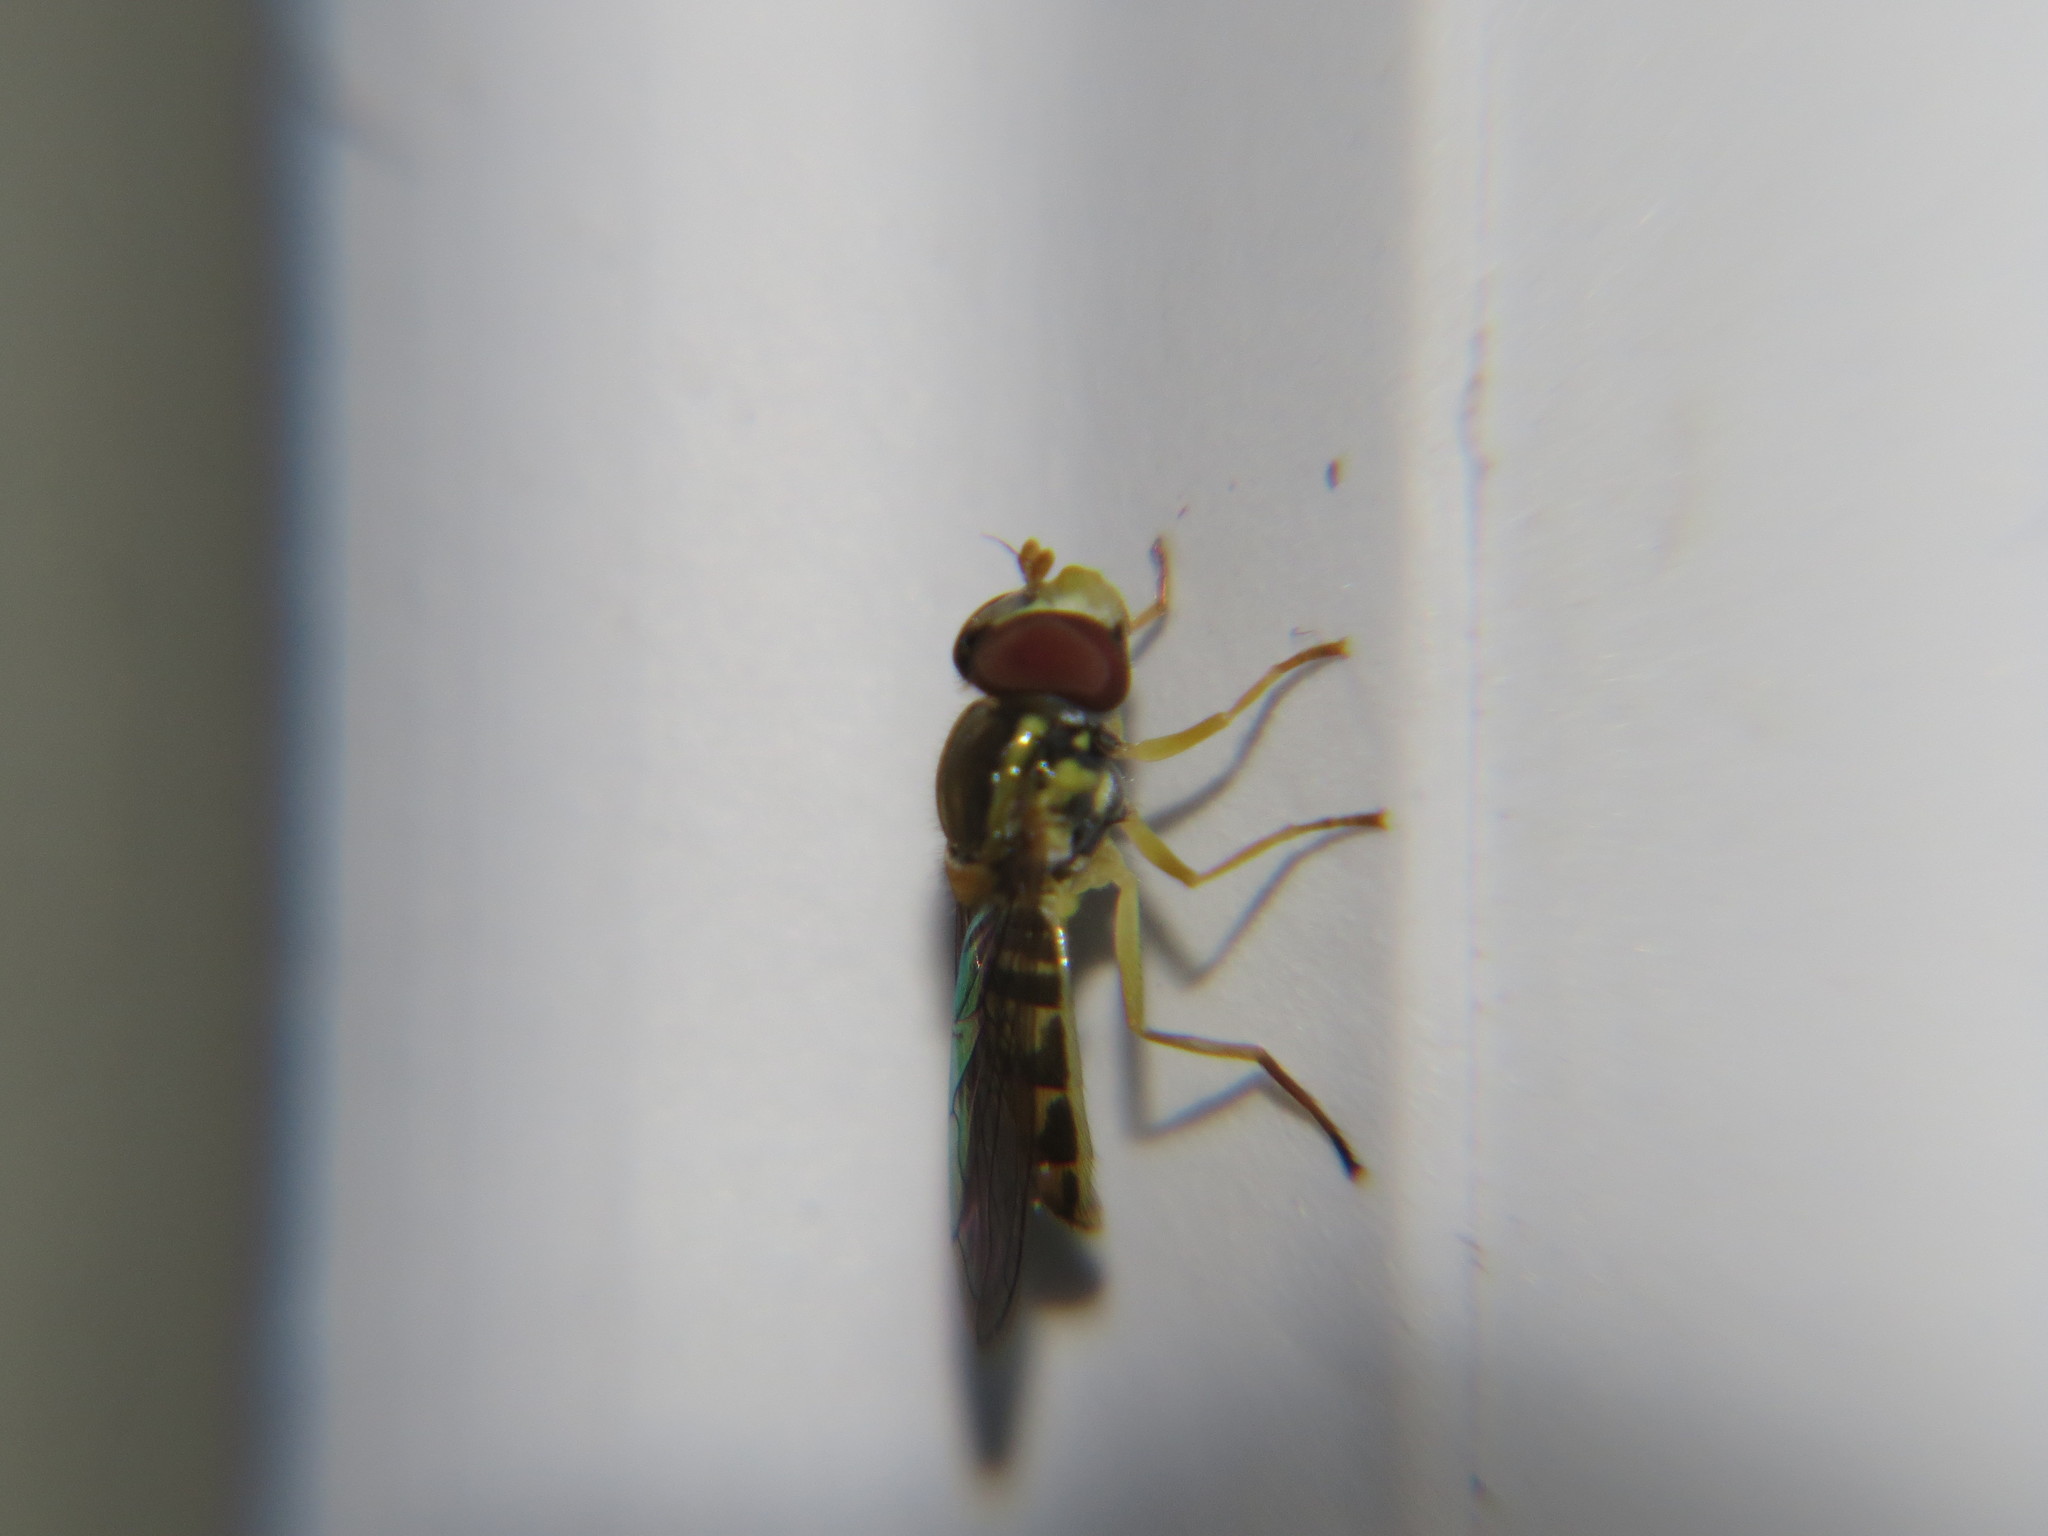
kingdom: Animalia
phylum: Arthropoda
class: Insecta
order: Diptera
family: Syrphidae
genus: Toxomerus
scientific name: Toxomerus marginatus
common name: Syrphid fly
